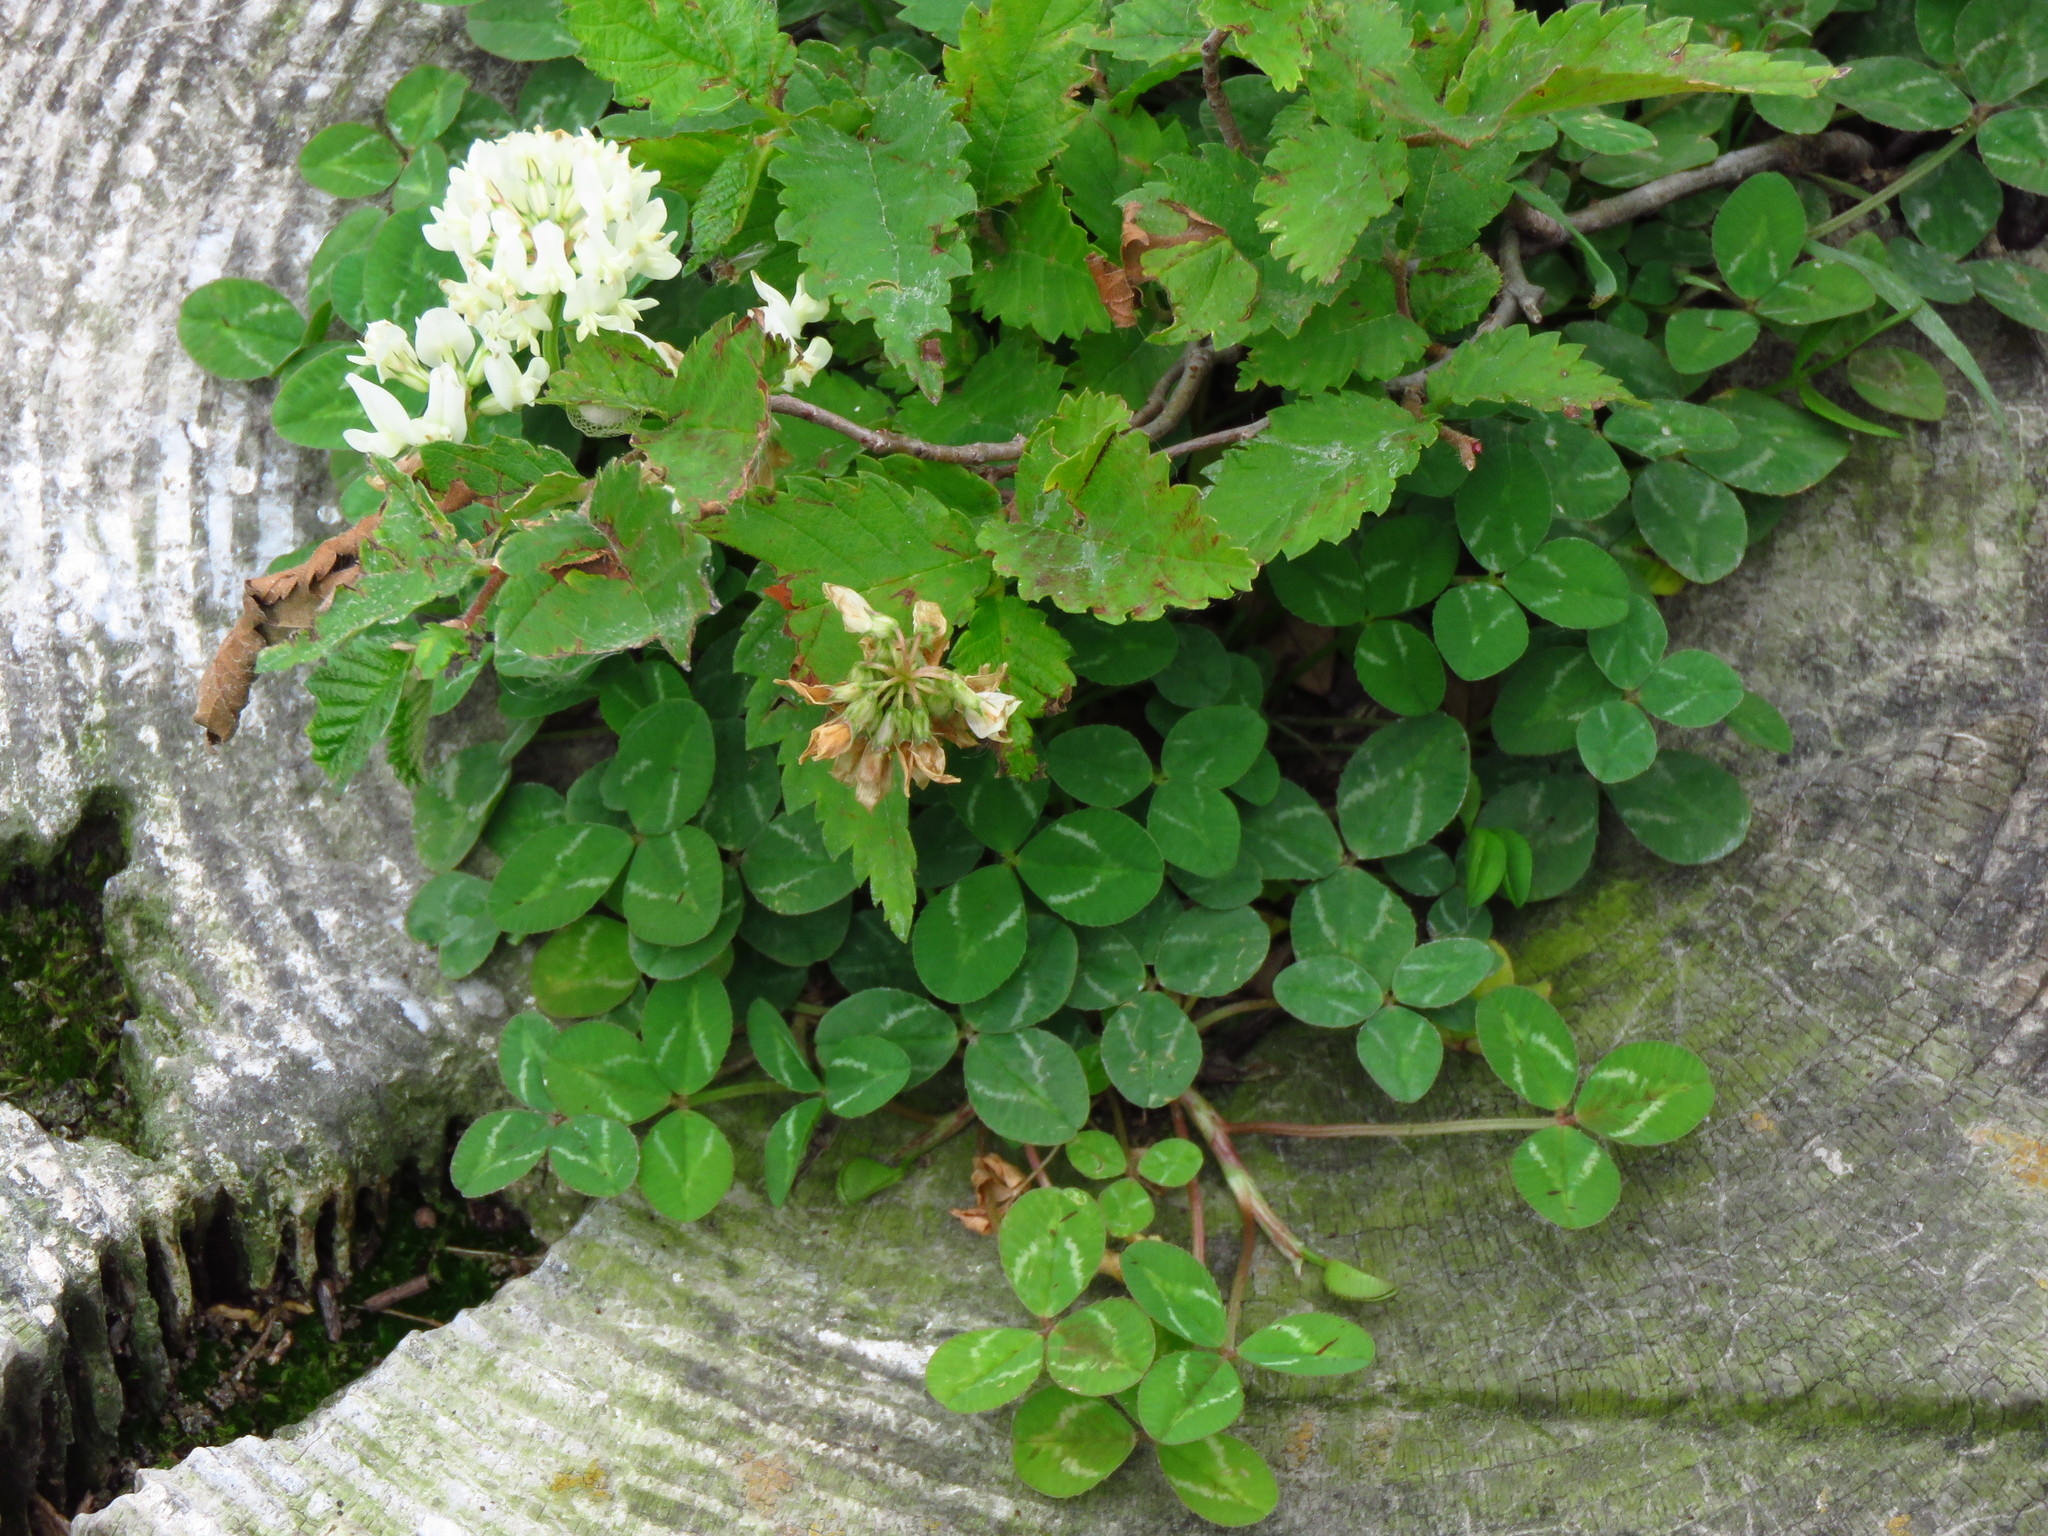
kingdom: Plantae
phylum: Tracheophyta
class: Magnoliopsida
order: Fabales
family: Fabaceae
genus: Trifolium
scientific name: Trifolium repens
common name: White clover
